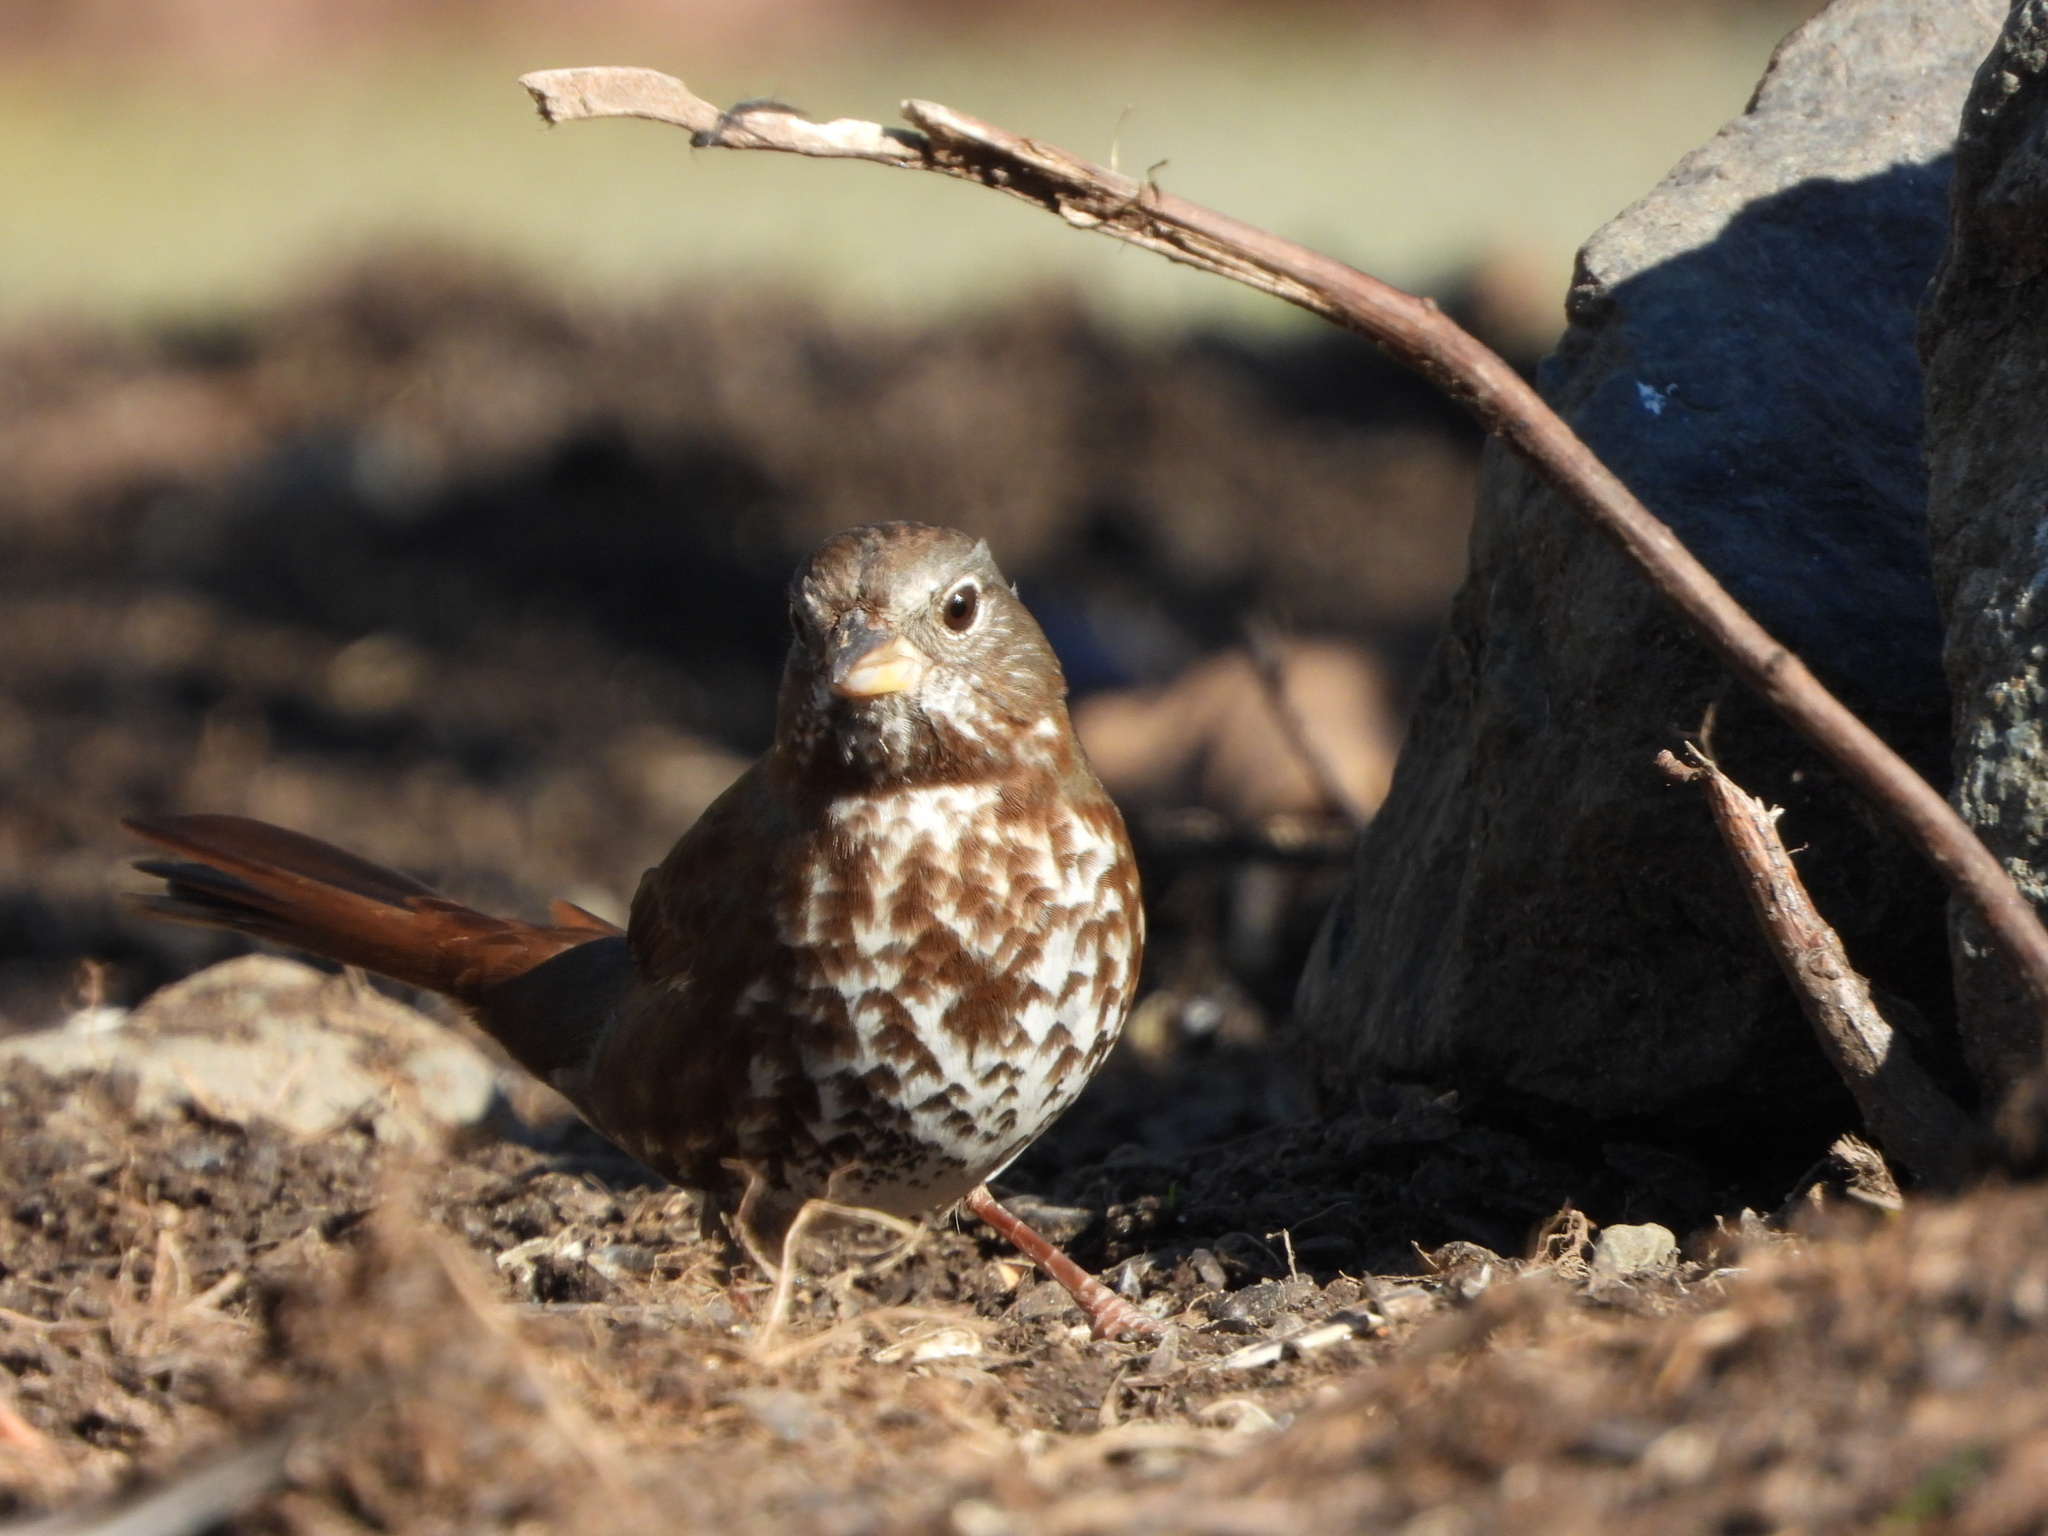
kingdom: Animalia
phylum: Chordata
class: Aves
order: Passeriformes
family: Passerellidae
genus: Passerella
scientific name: Passerella iliaca
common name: Fox sparrow
